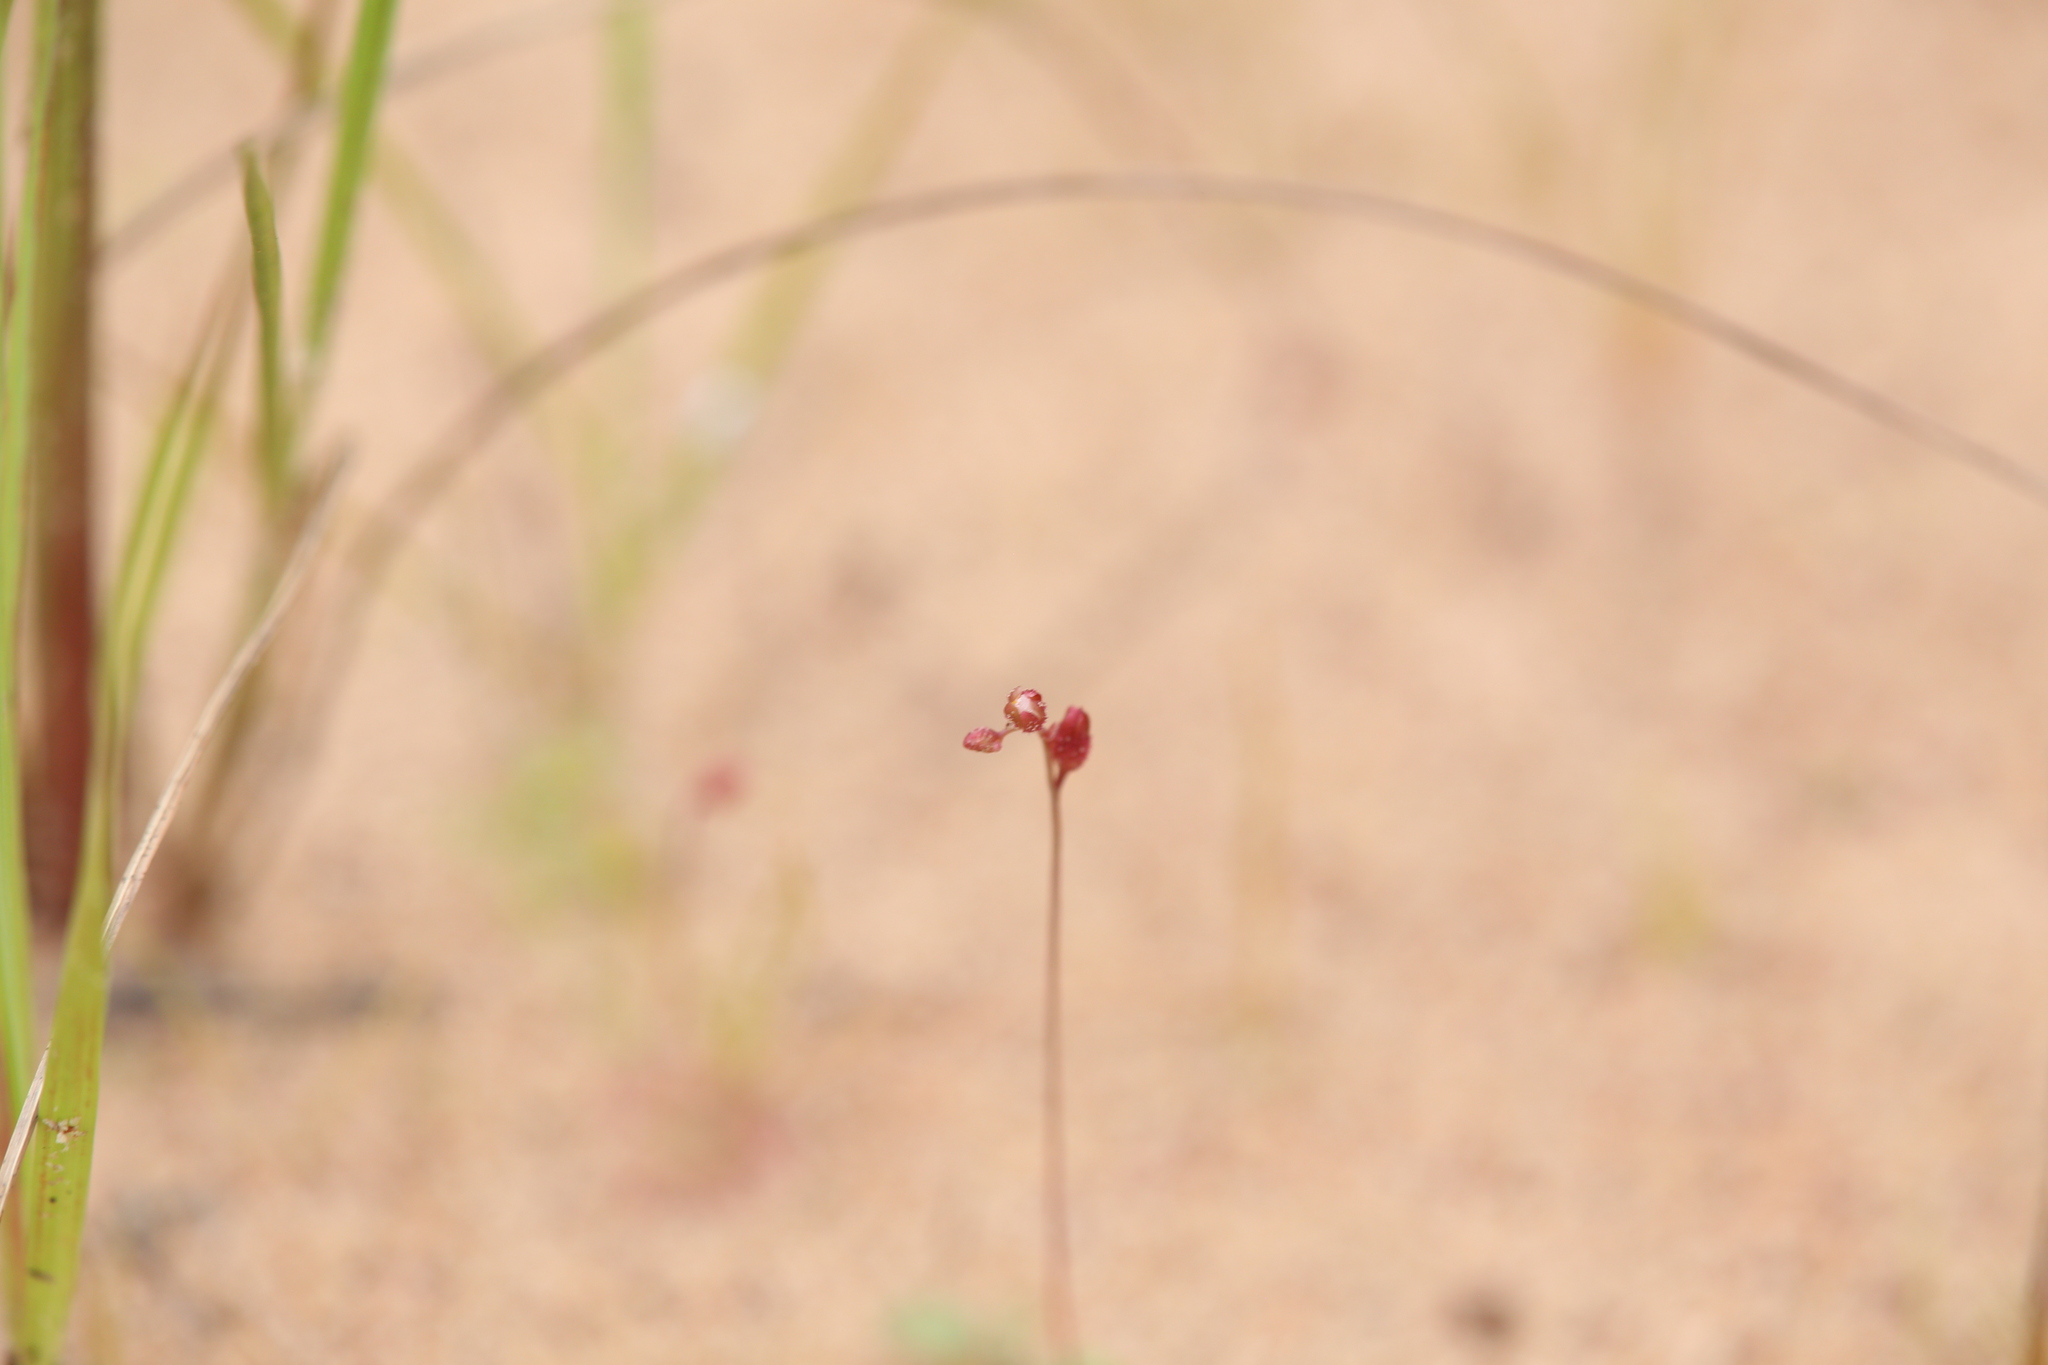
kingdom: Plantae
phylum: Tracheophyta
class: Magnoliopsida
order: Caryophyllales
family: Droseraceae
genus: Drosera
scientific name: Drosera spatulata
